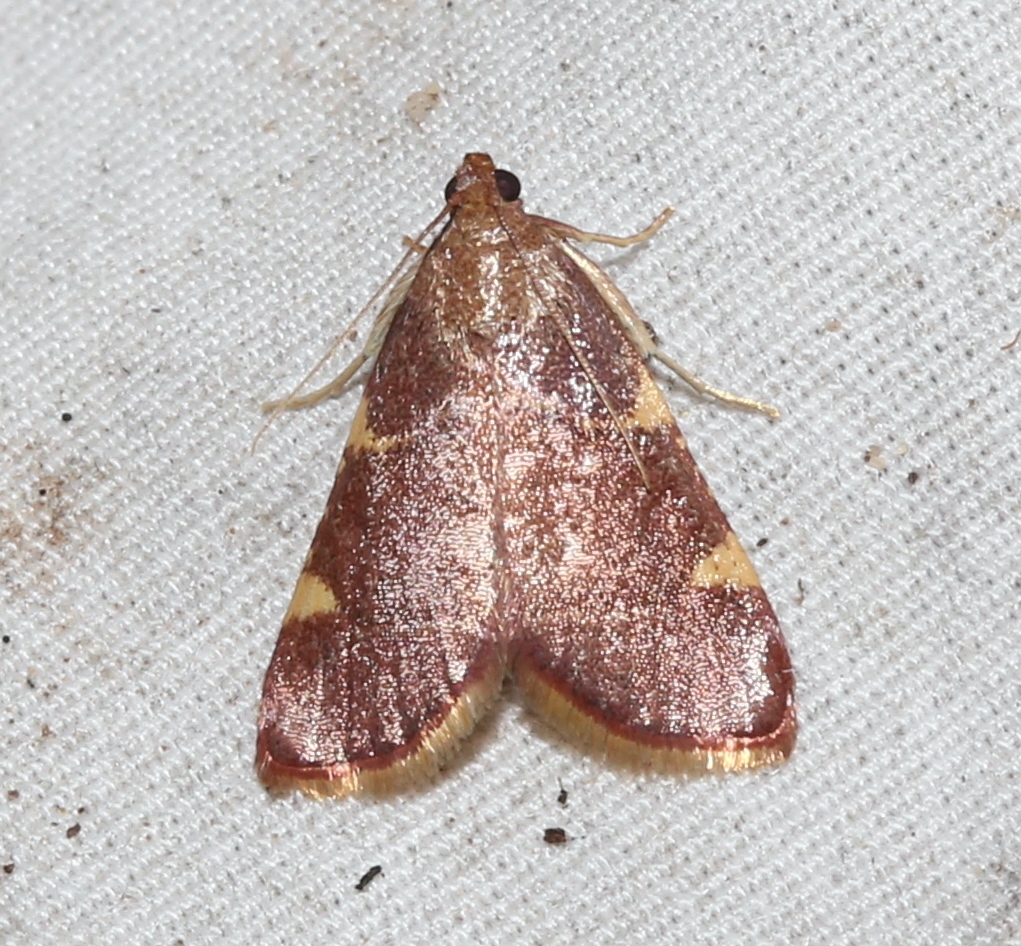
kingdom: Animalia
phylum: Arthropoda
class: Insecta
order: Lepidoptera
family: Pyralidae
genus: Hypsopygia
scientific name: Hypsopygia olinalis
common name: Yellow-fringed dolichomia moth
